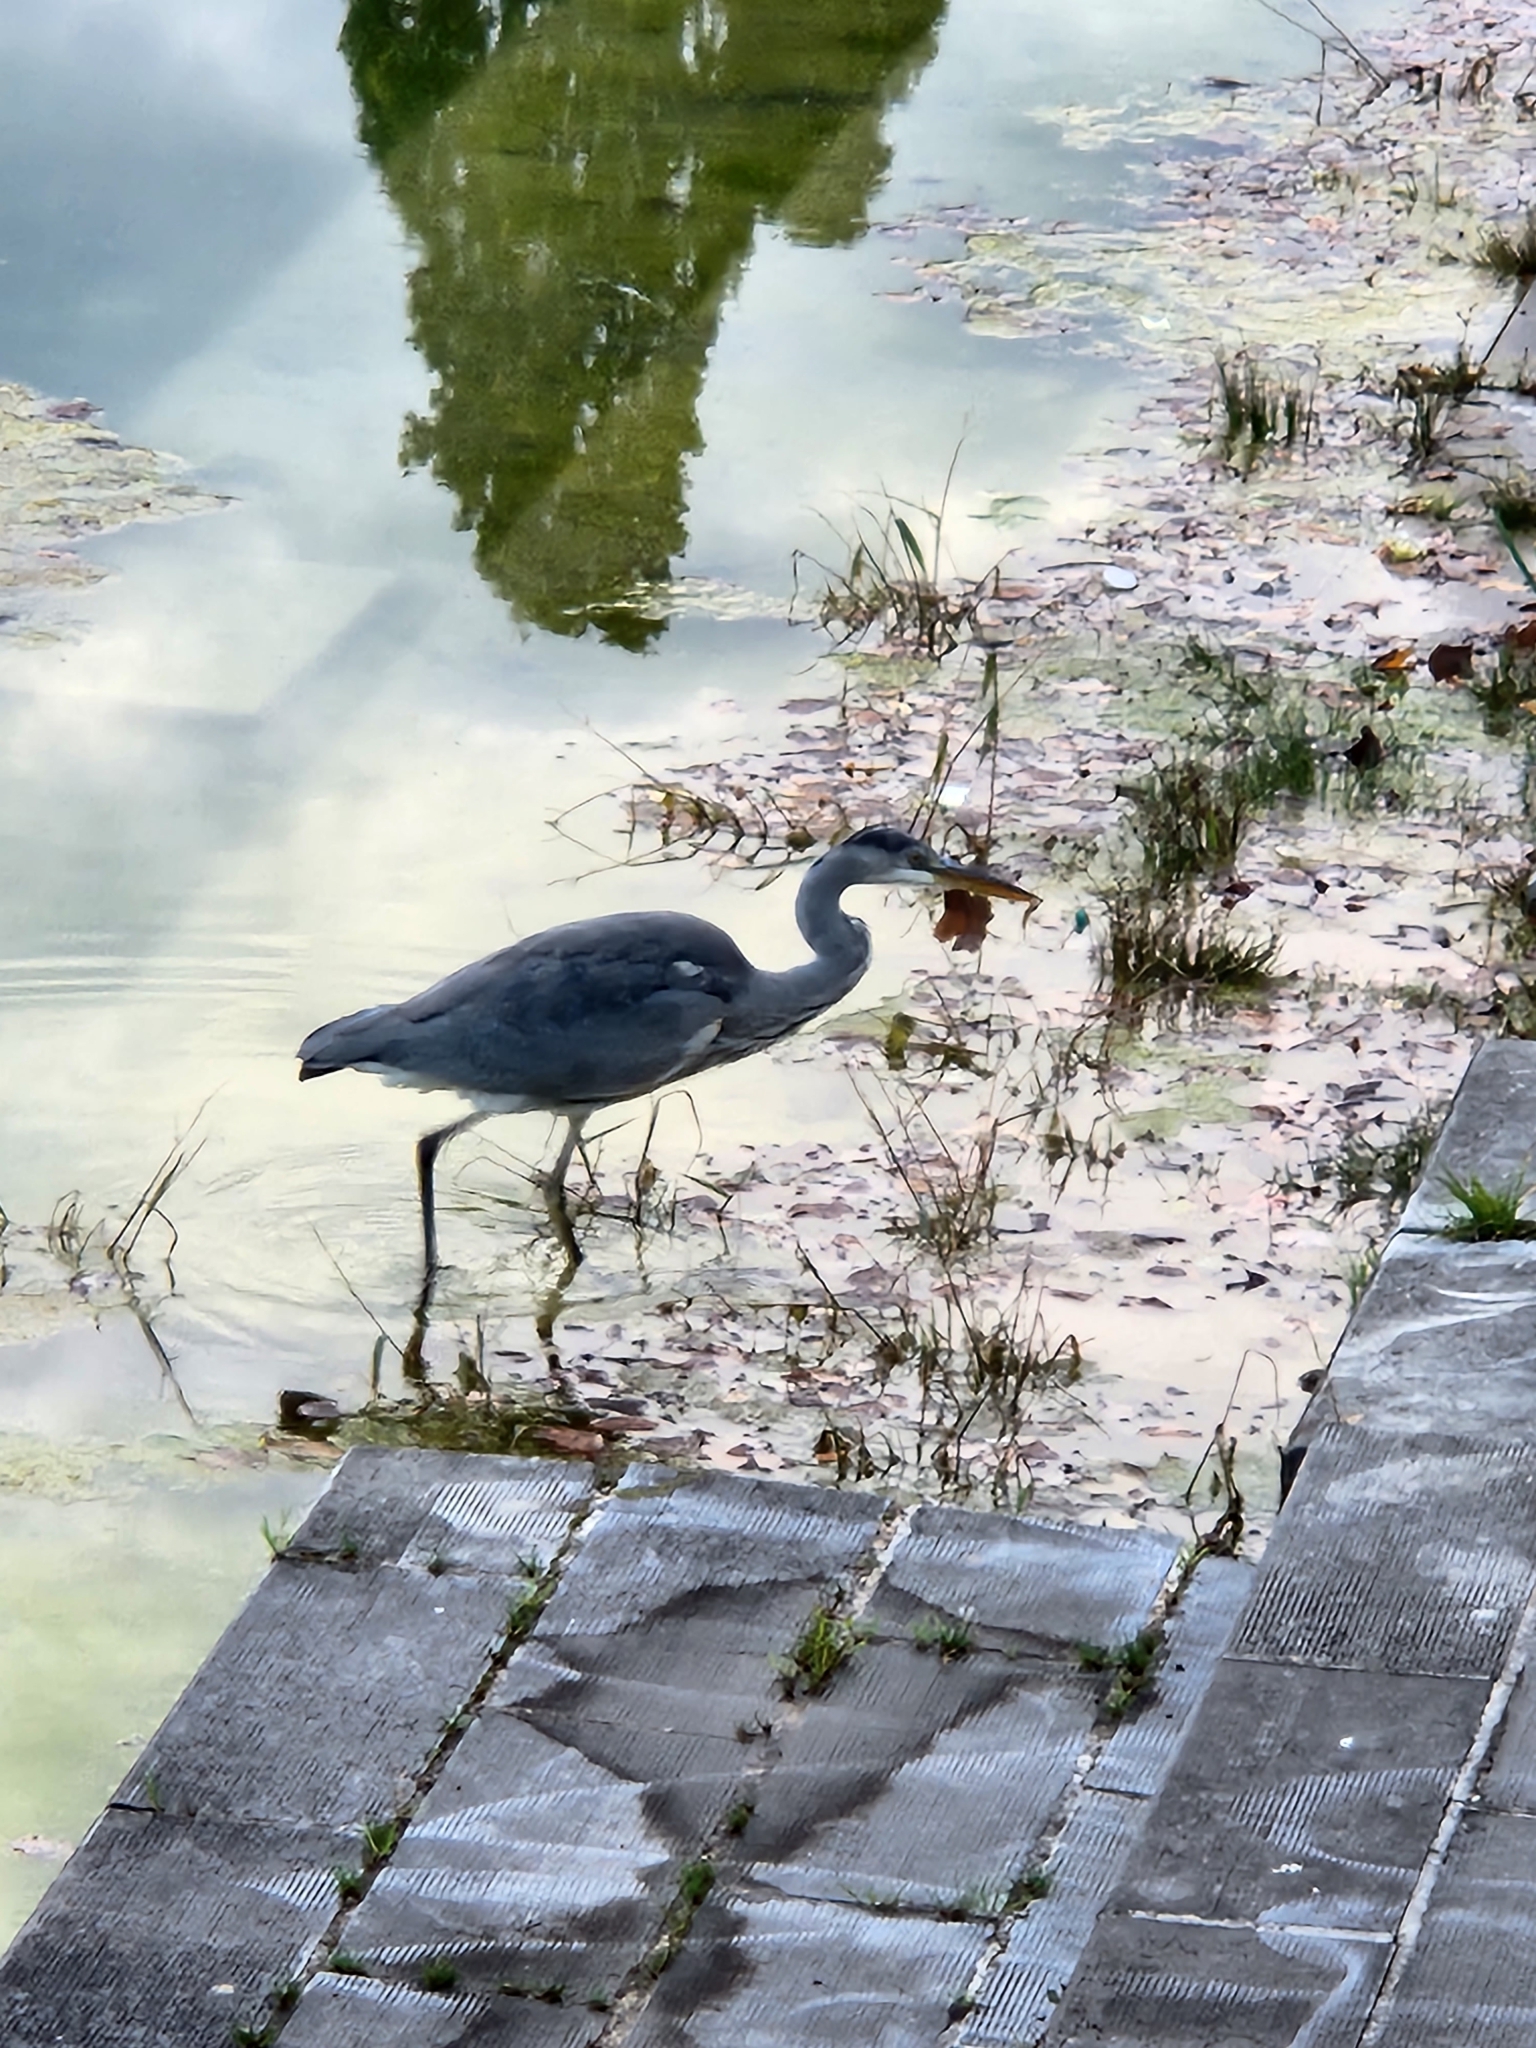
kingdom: Animalia
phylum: Chordata
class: Aves
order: Pelecaniformes
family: Ardeidae
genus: Ardea
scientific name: Ardea cinerea
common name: Grey heron
